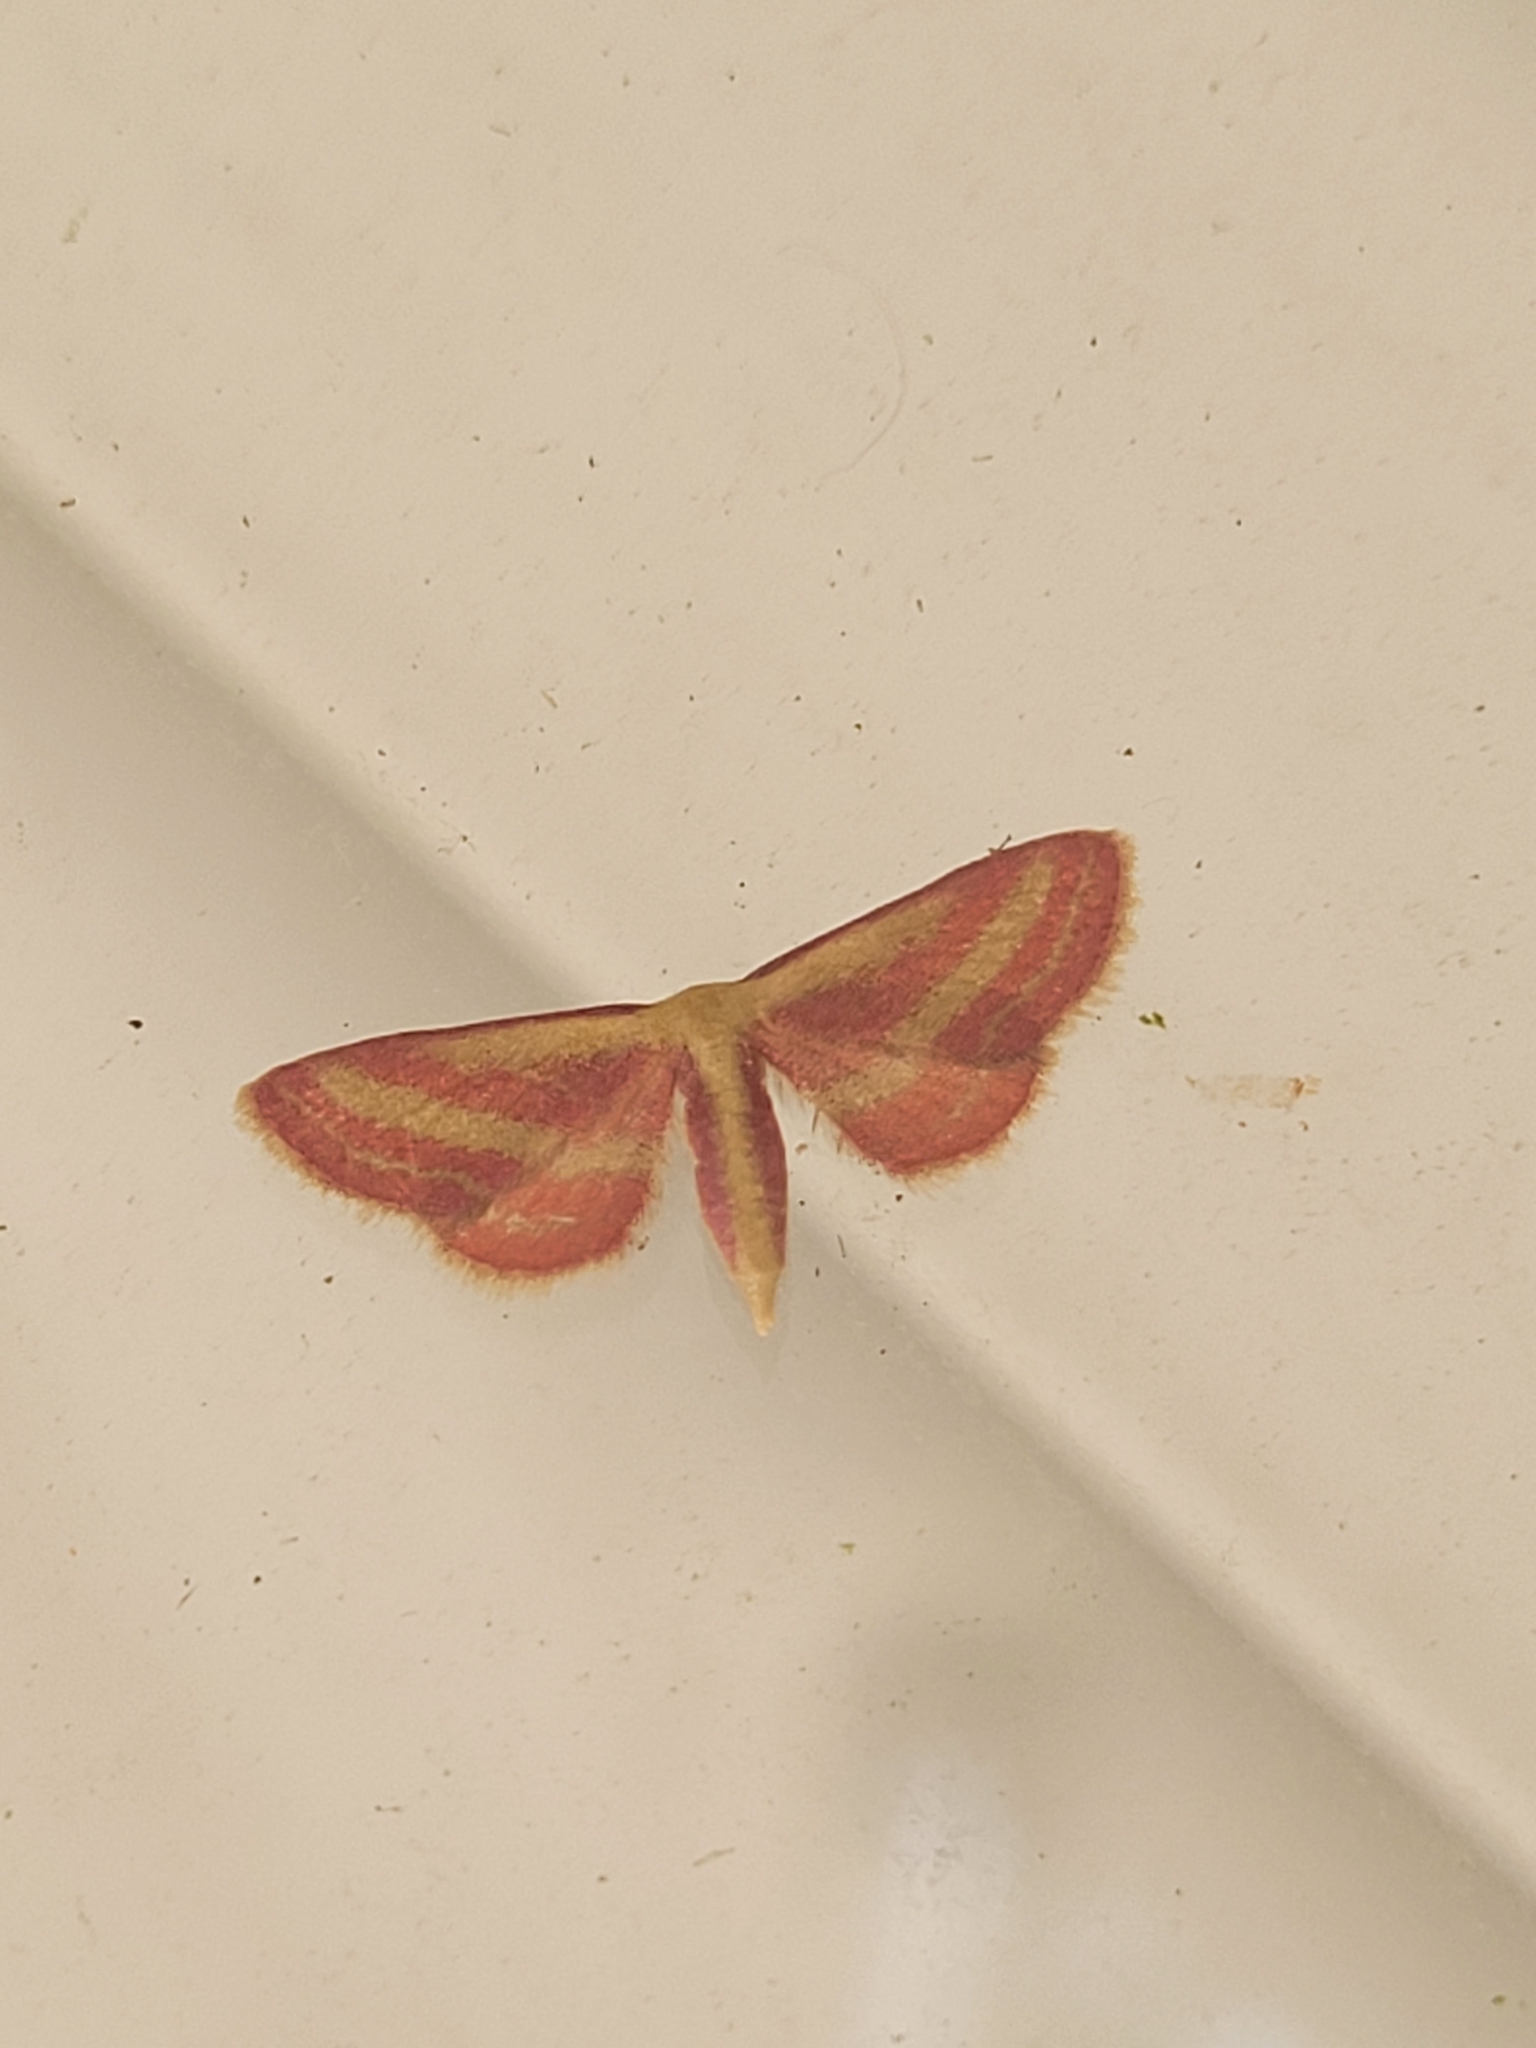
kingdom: Animalia
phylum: Arthropoda
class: Insecta
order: Lepidoptera
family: Geometridae
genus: Leptostales
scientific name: Leptostales laevitaria
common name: Raspberry wave moth
